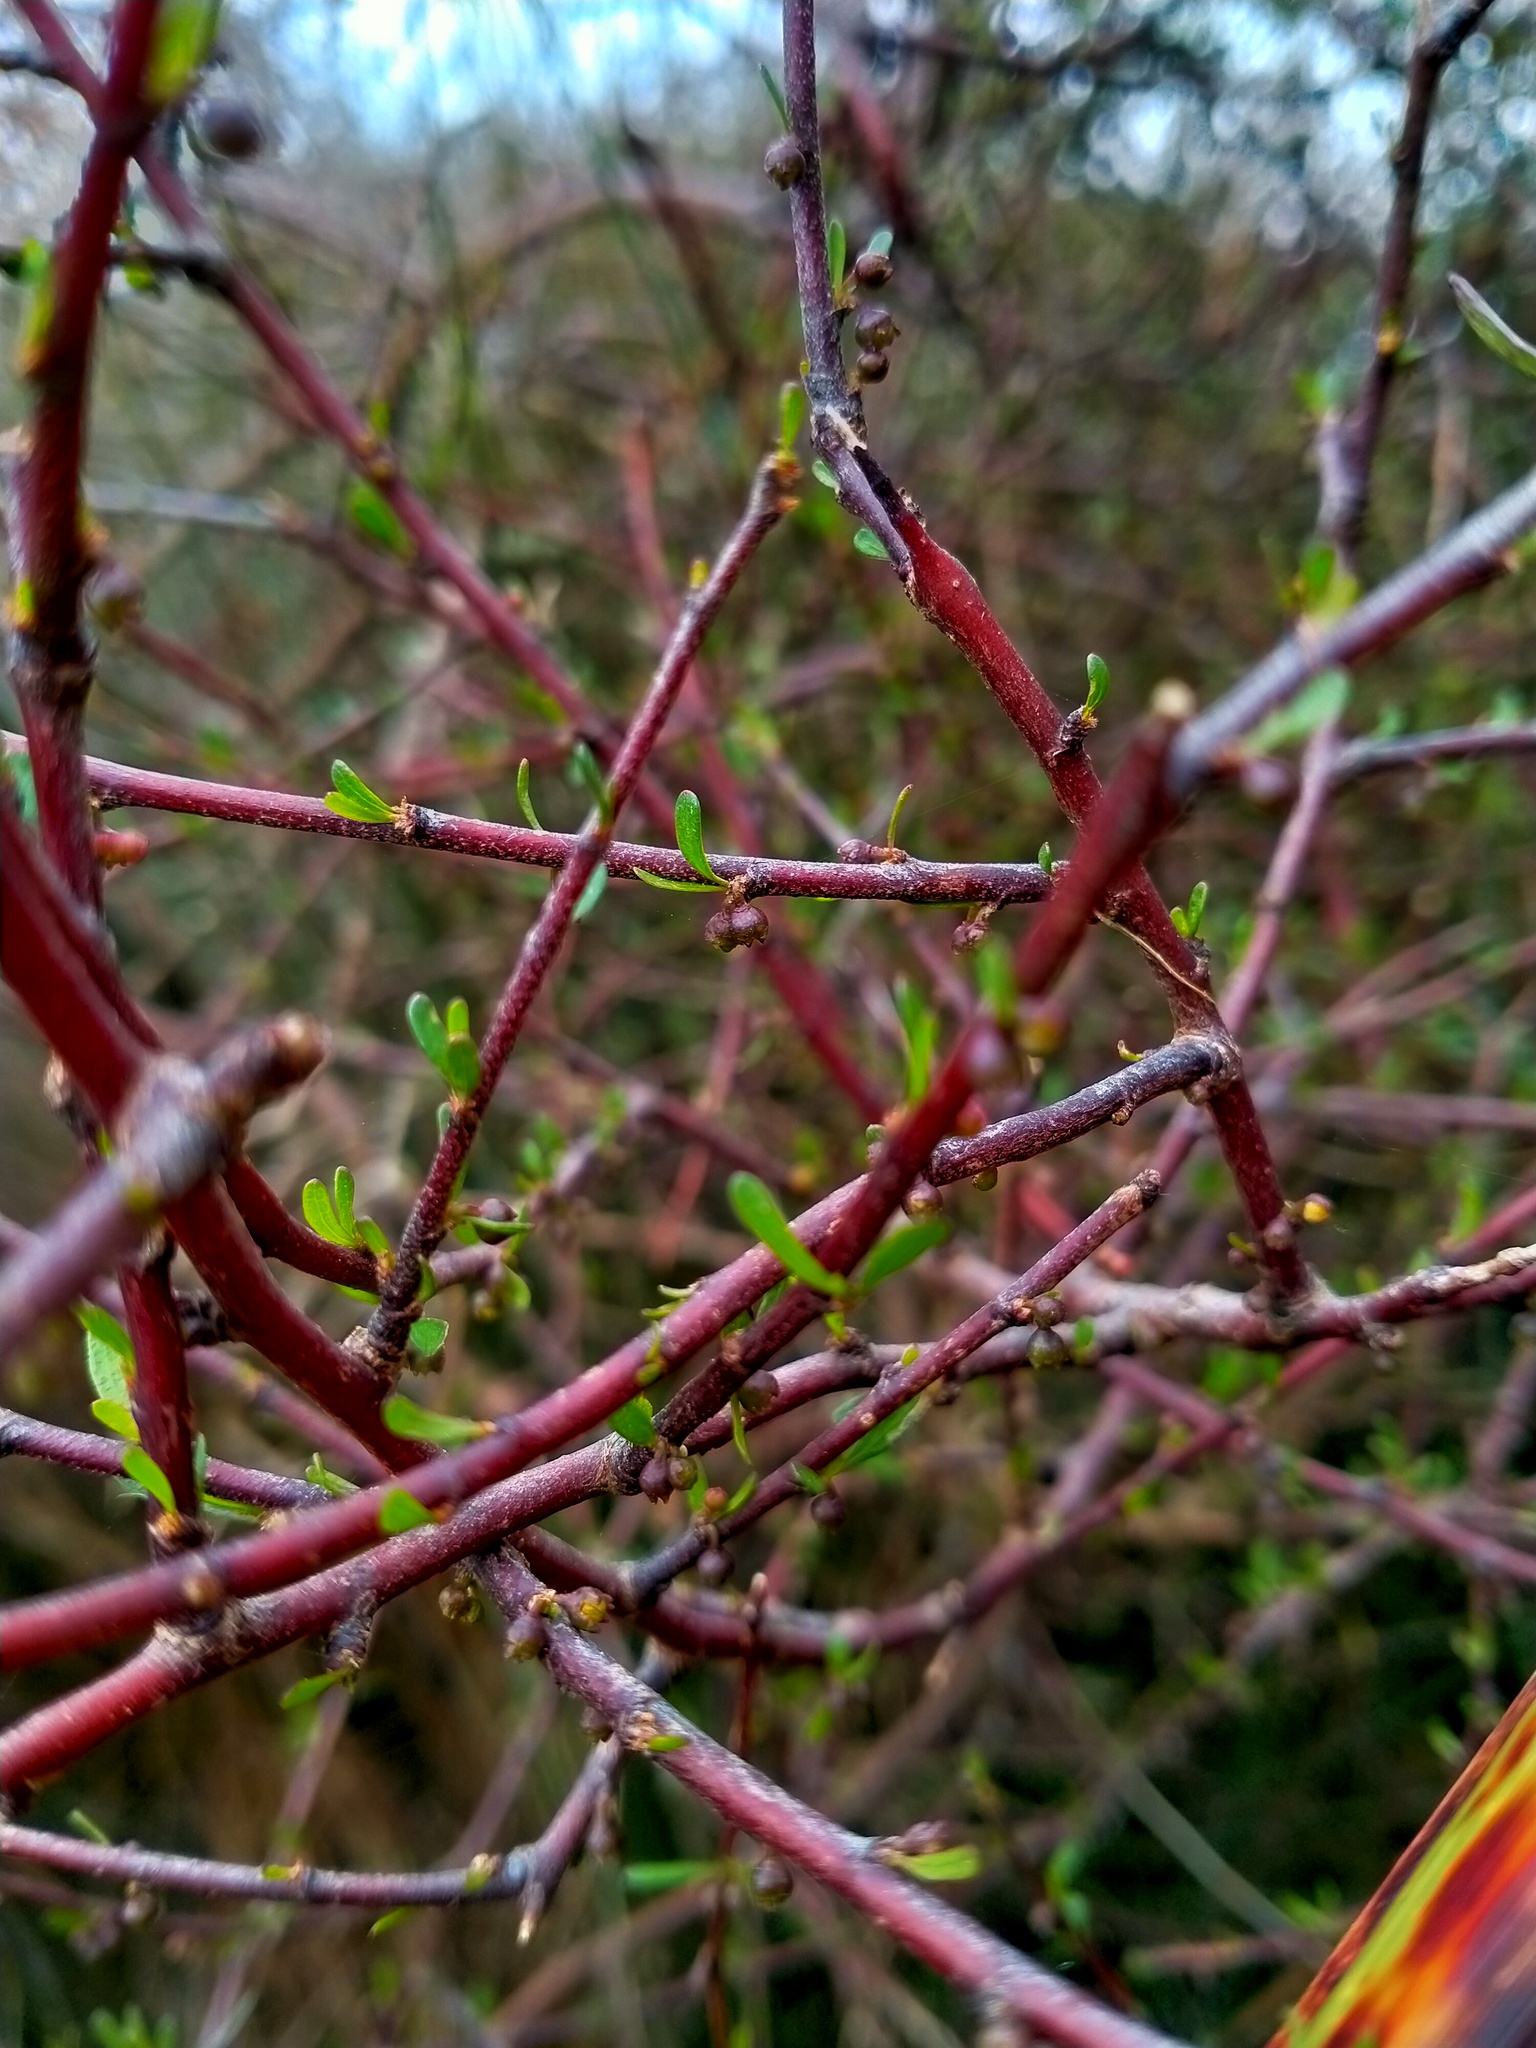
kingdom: Plantae
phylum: Tracheophyta
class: Magnoliopsida
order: Malvales
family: Malvaceae
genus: Plagianthus
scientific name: Plagianthus divaricatus
